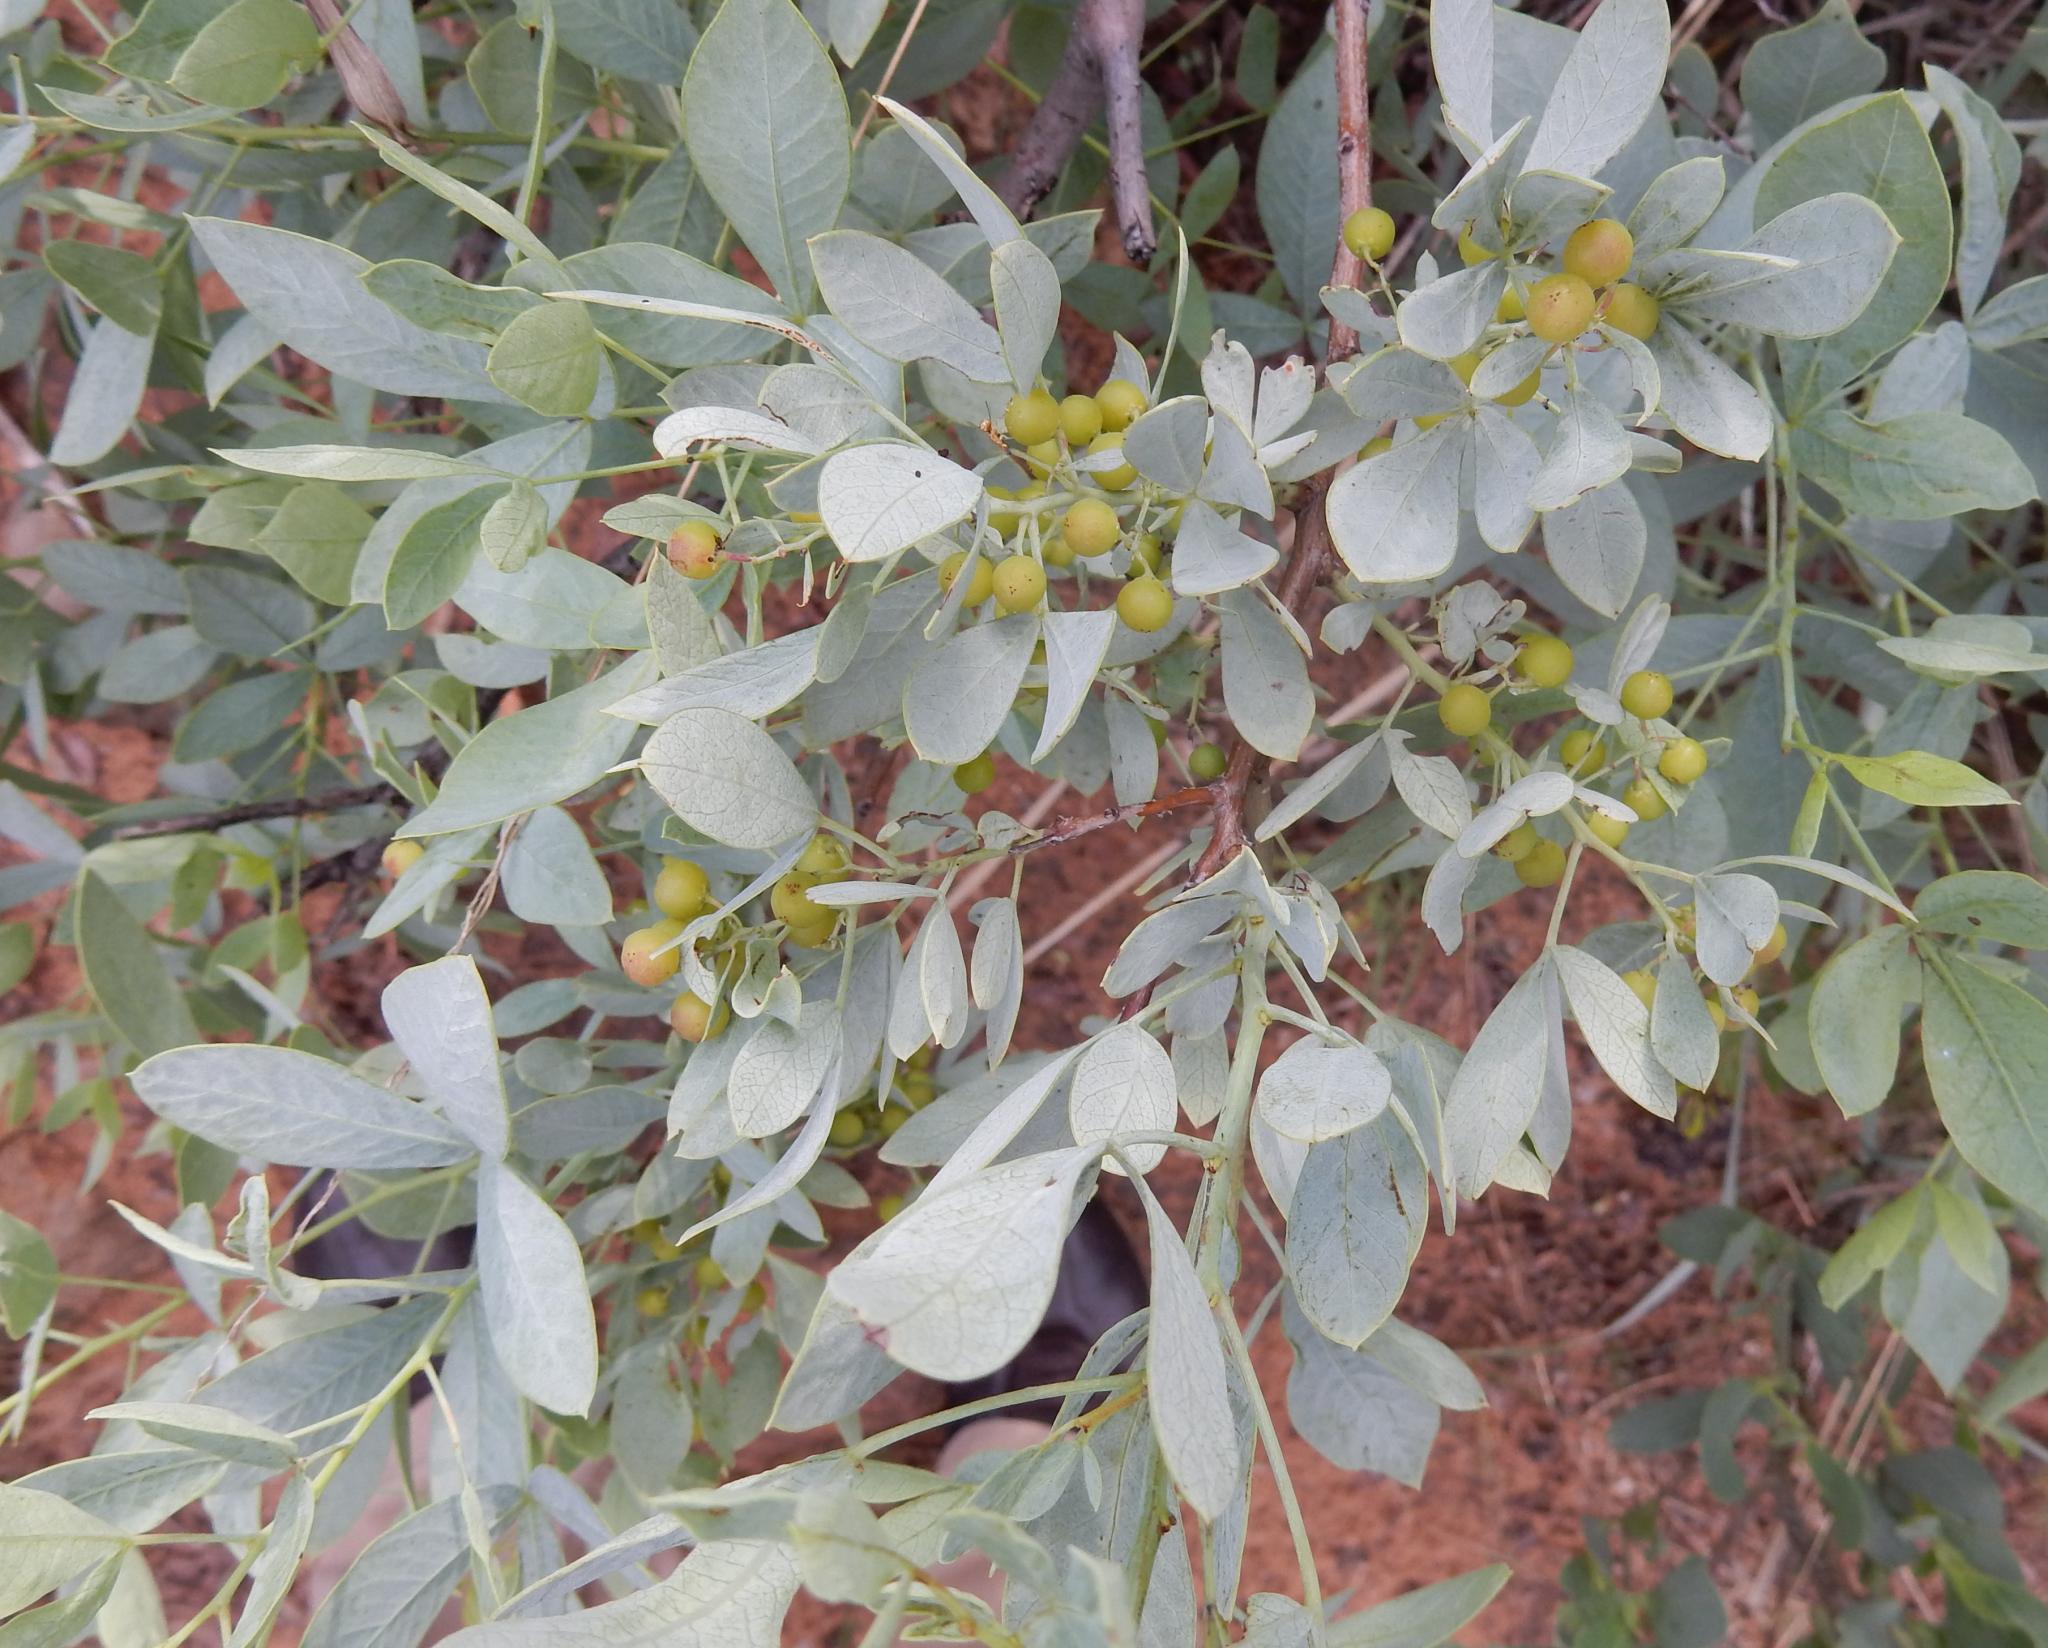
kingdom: Plantae
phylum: Tracheophyta
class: Magnoliopsida
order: Sapindales
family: Anacardiaceae
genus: Searsia
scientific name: Searsia zeyheri
